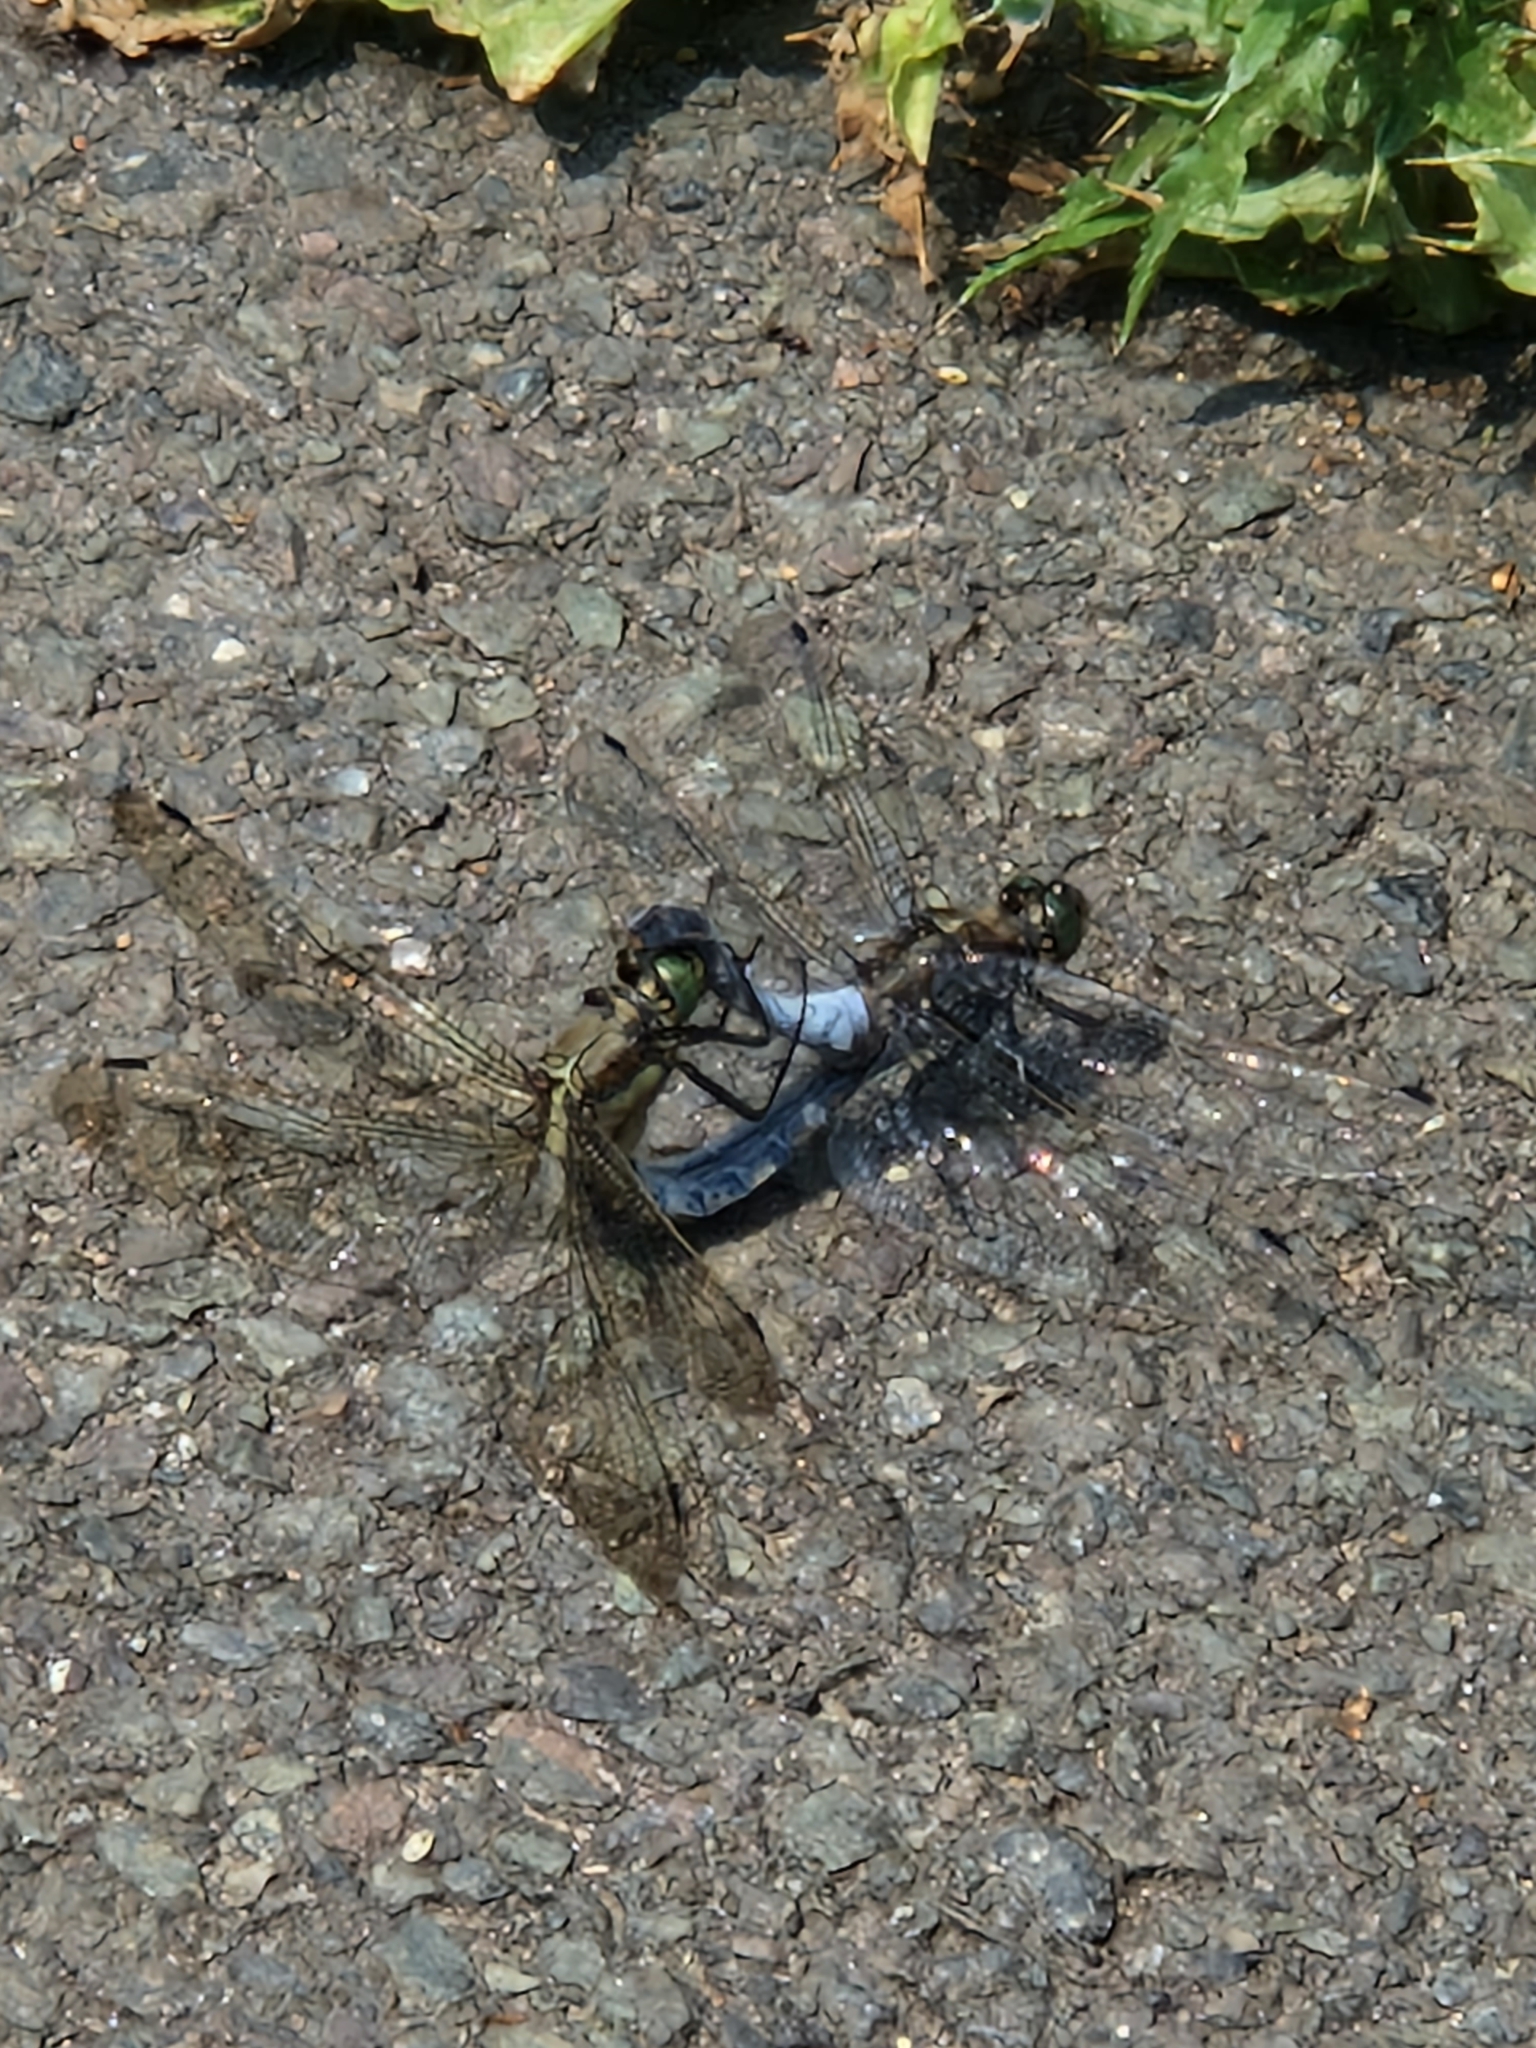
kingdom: Animalia
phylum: Arthropoda
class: Insecta
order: Odonata
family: Libellulidae
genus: Orthetrum
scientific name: Orthetrum cancellatum
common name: Black-tailed skimmer
